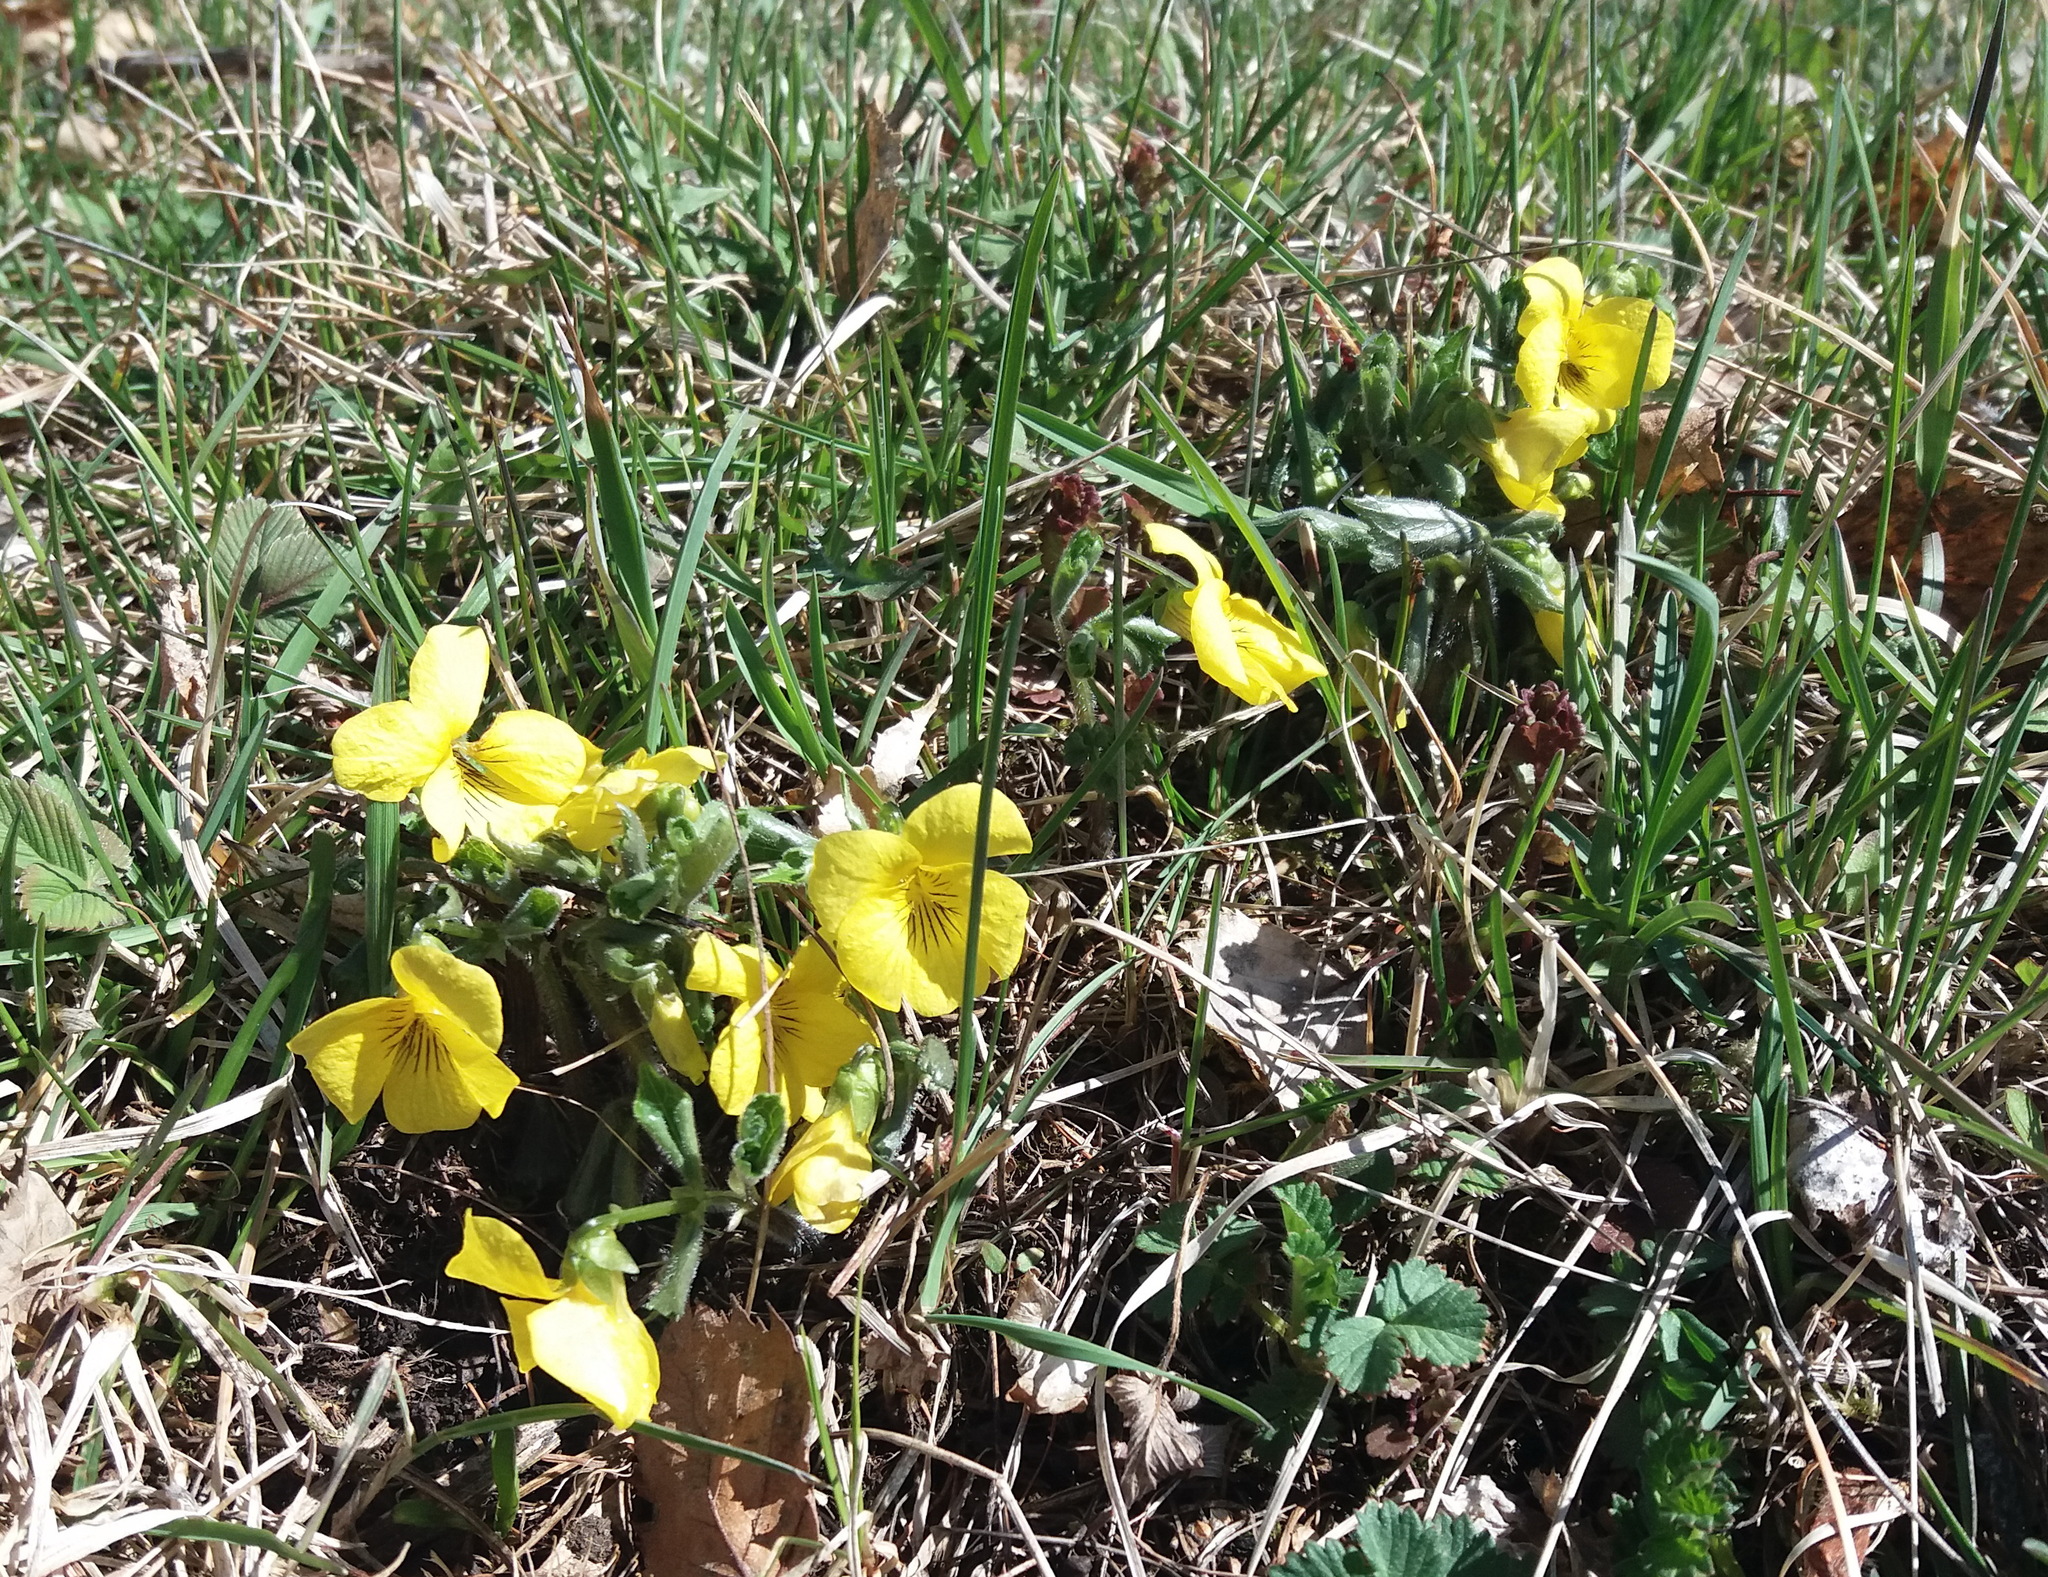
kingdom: Plantae
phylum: Tracheophyta
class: Magnoliopsida
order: Malpighiales
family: Violaceae
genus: Viola
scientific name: Viola uniflora
